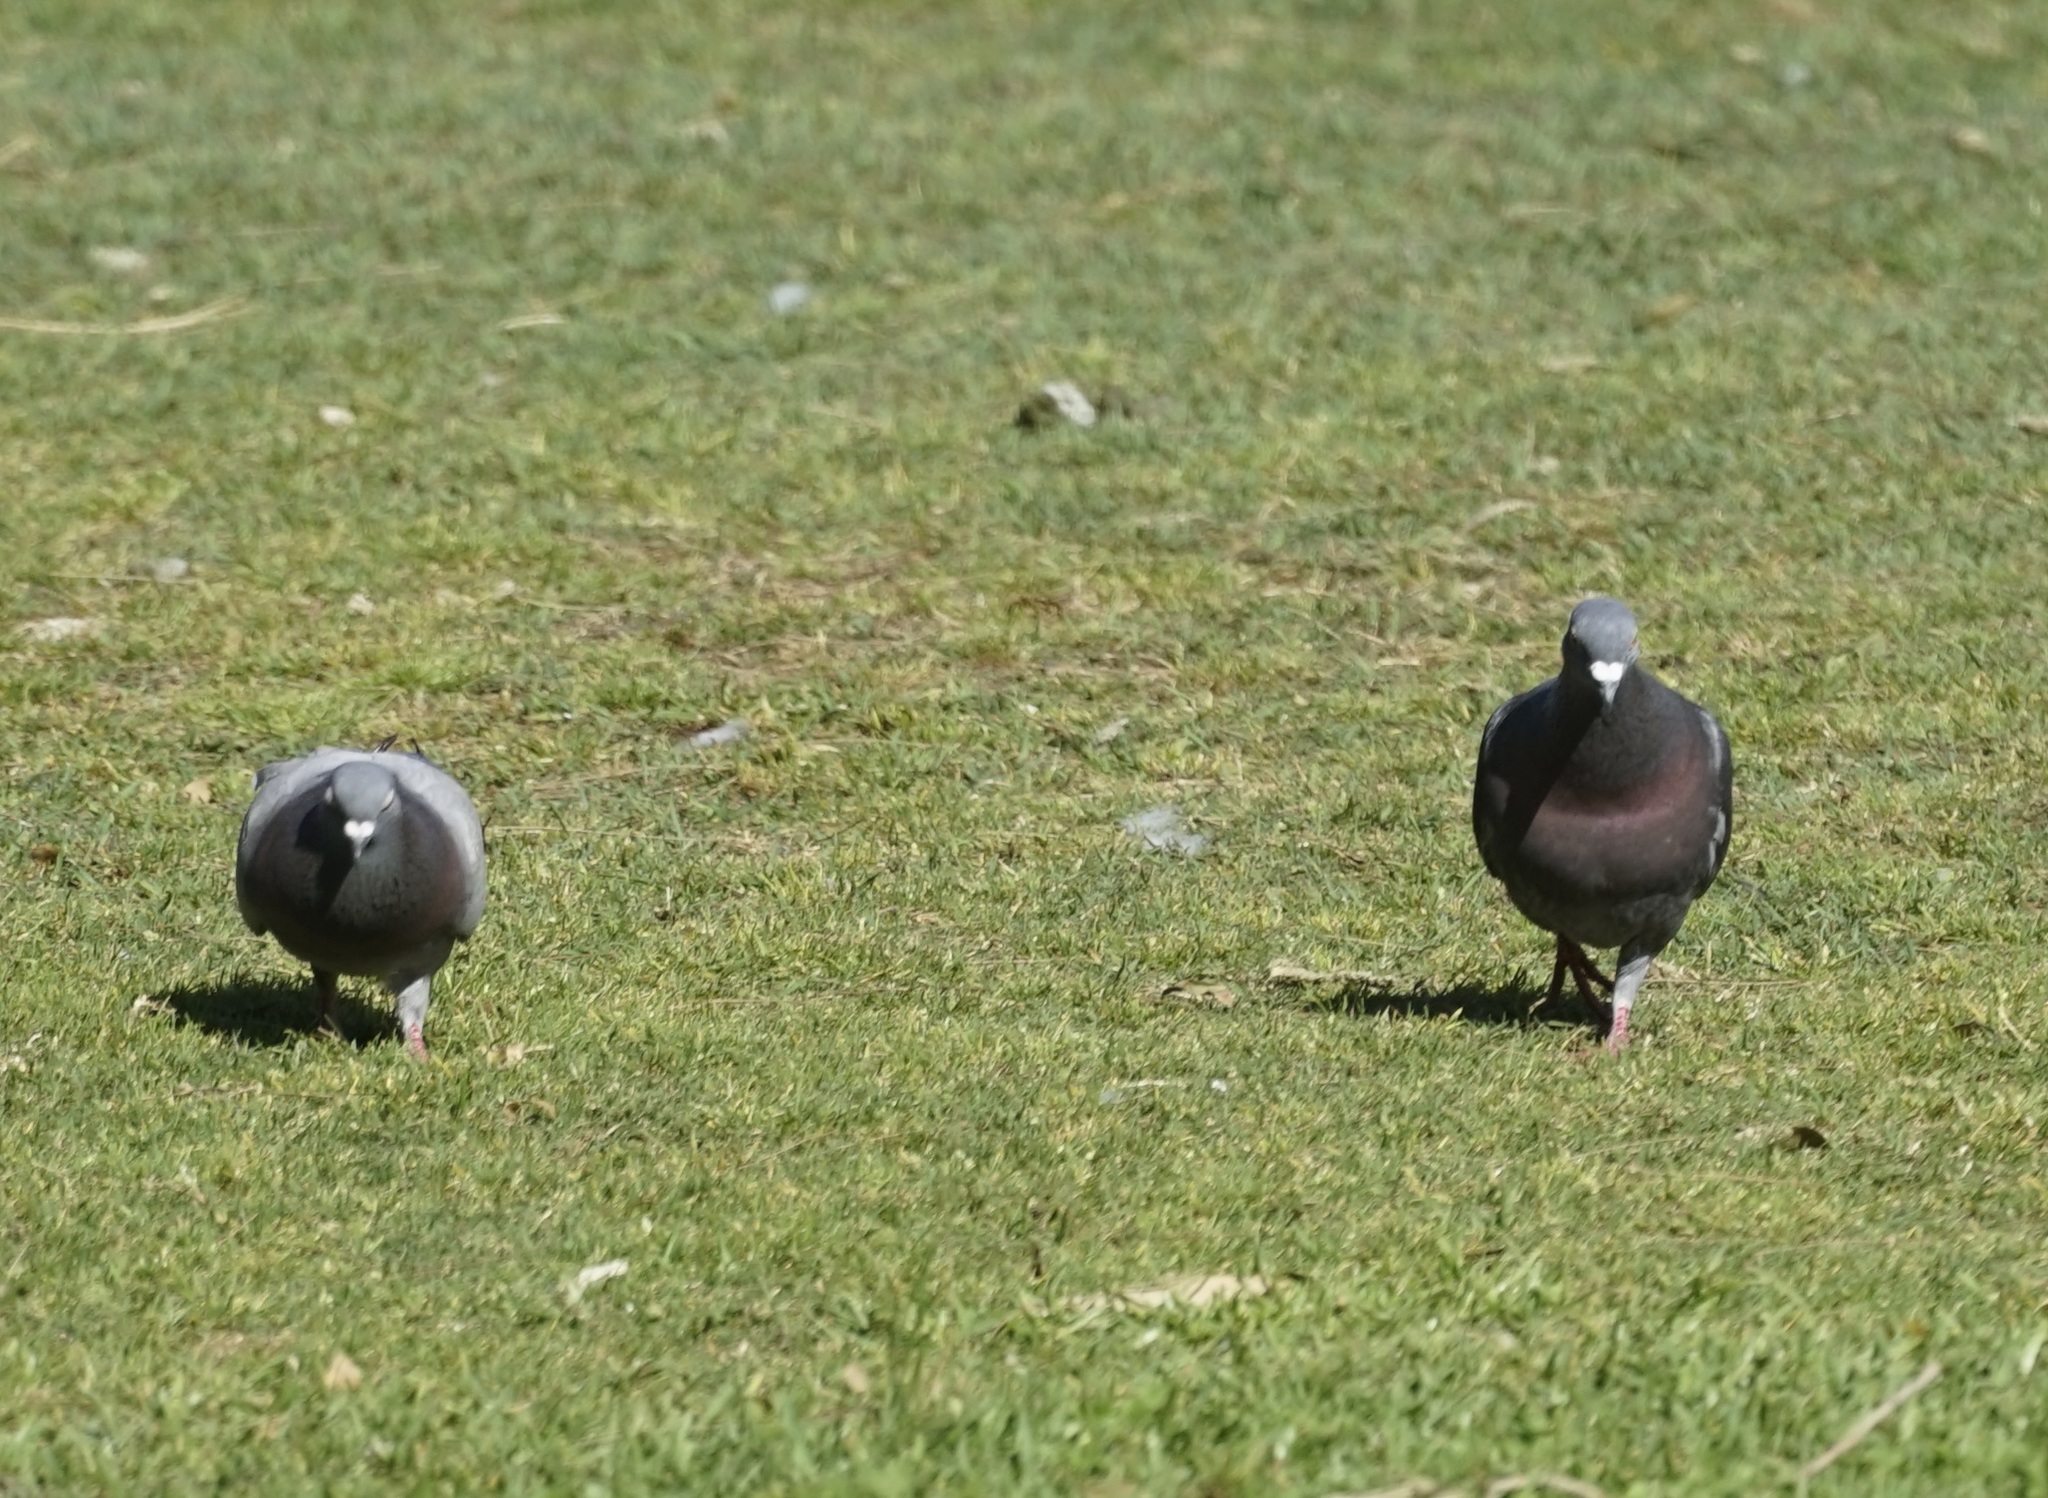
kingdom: Animalia
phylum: Chordata
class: Aves
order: Columbiformes
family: Columbidae
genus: Columba
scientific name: Columba livia
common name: Rock pigeon
